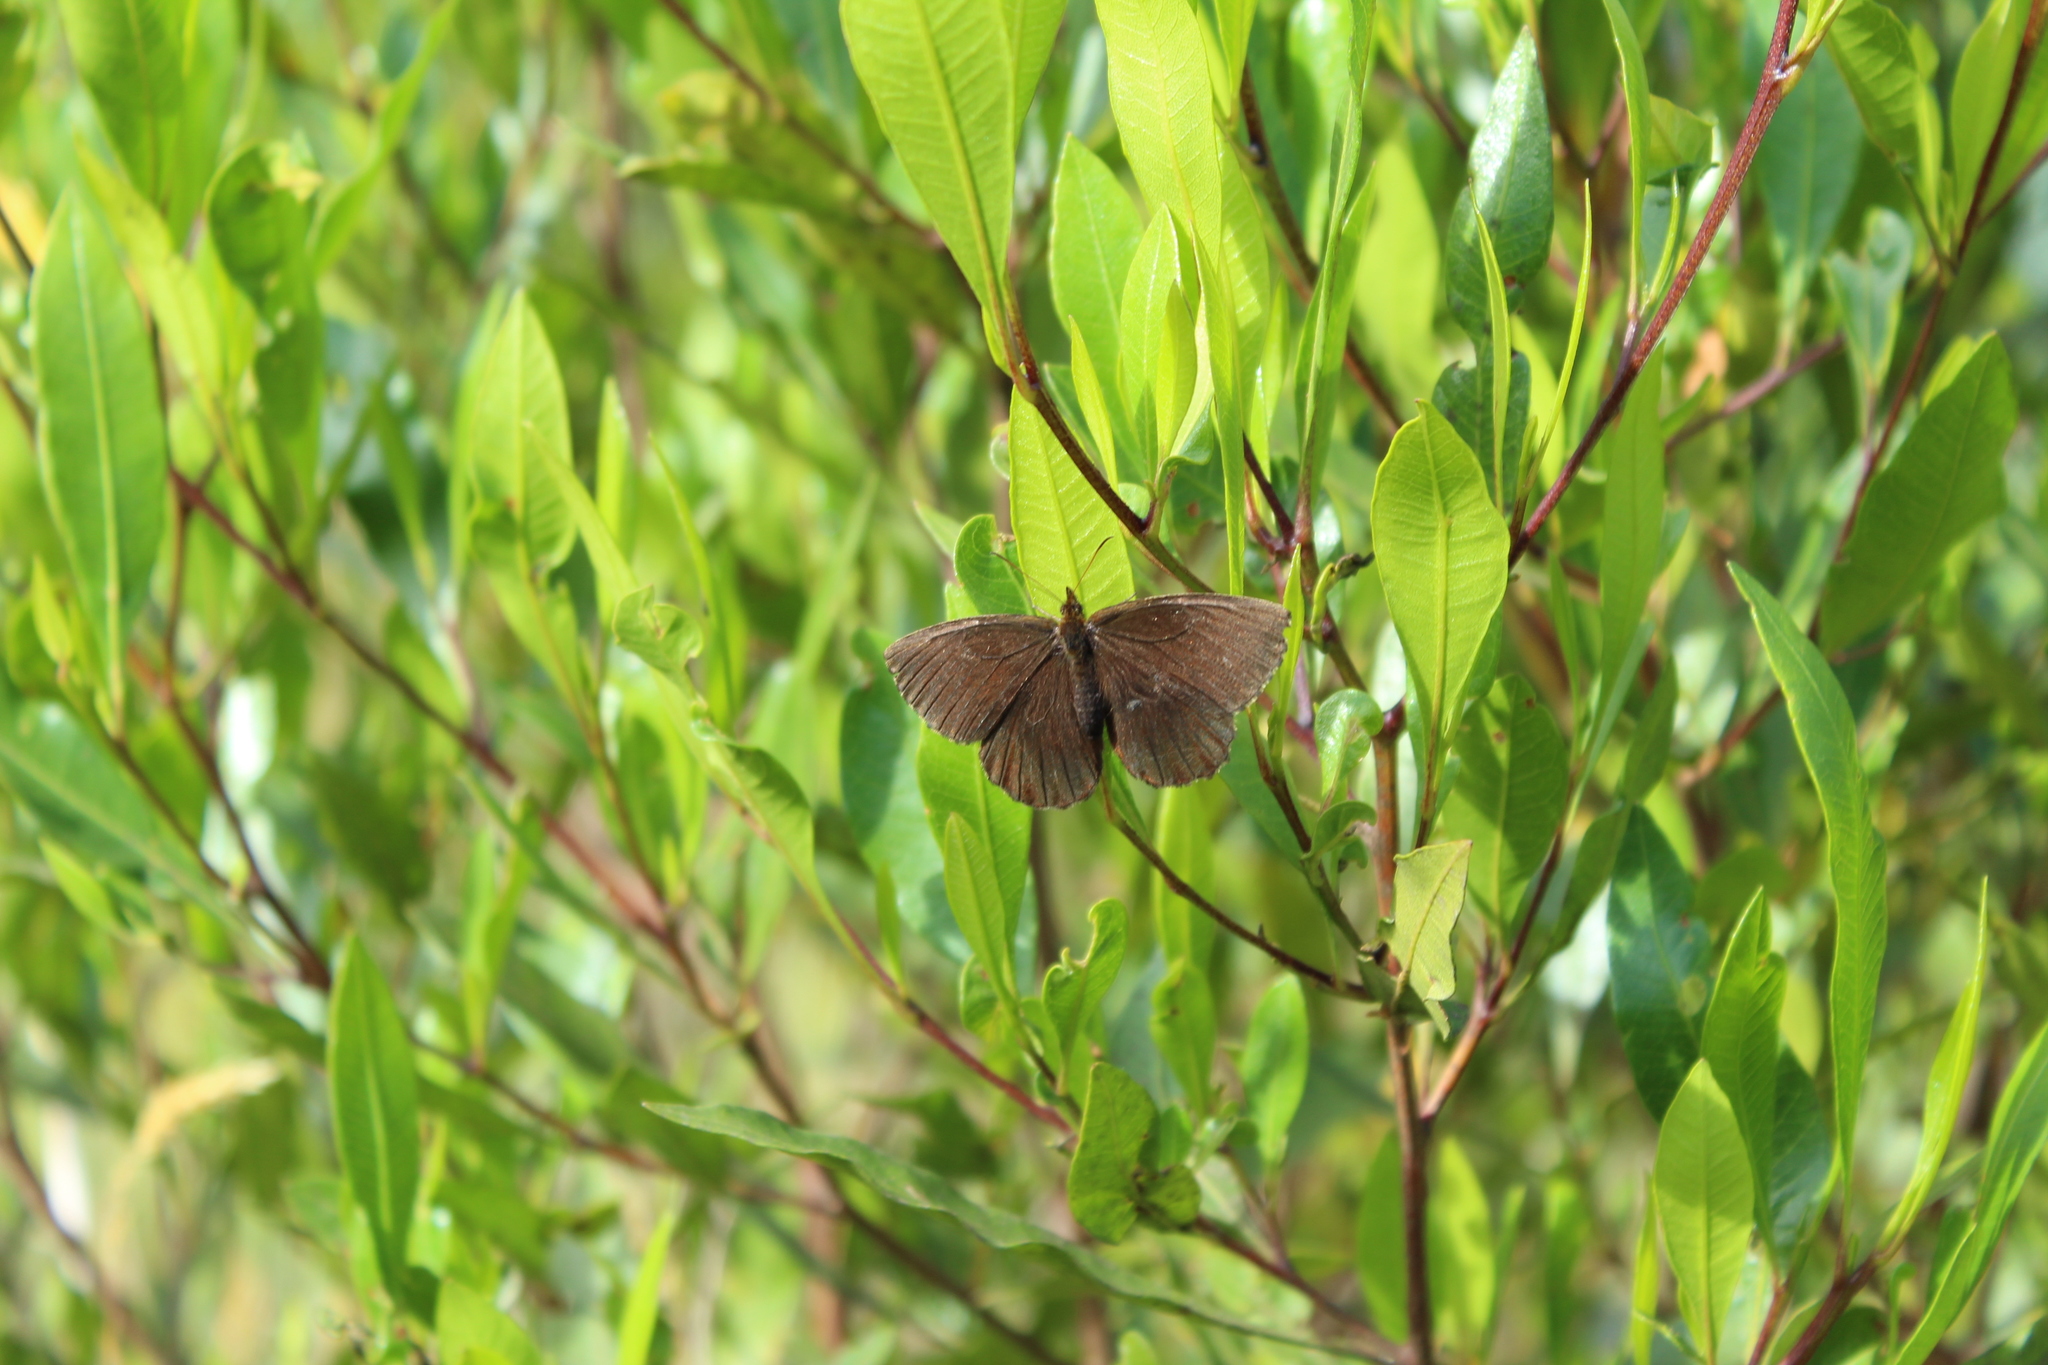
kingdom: Animalia
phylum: Arthropoda
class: Insecta
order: Lepidoptera
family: Nymphalidae
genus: Panyapedaliodes
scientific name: Panyapedaliodes drymaea
